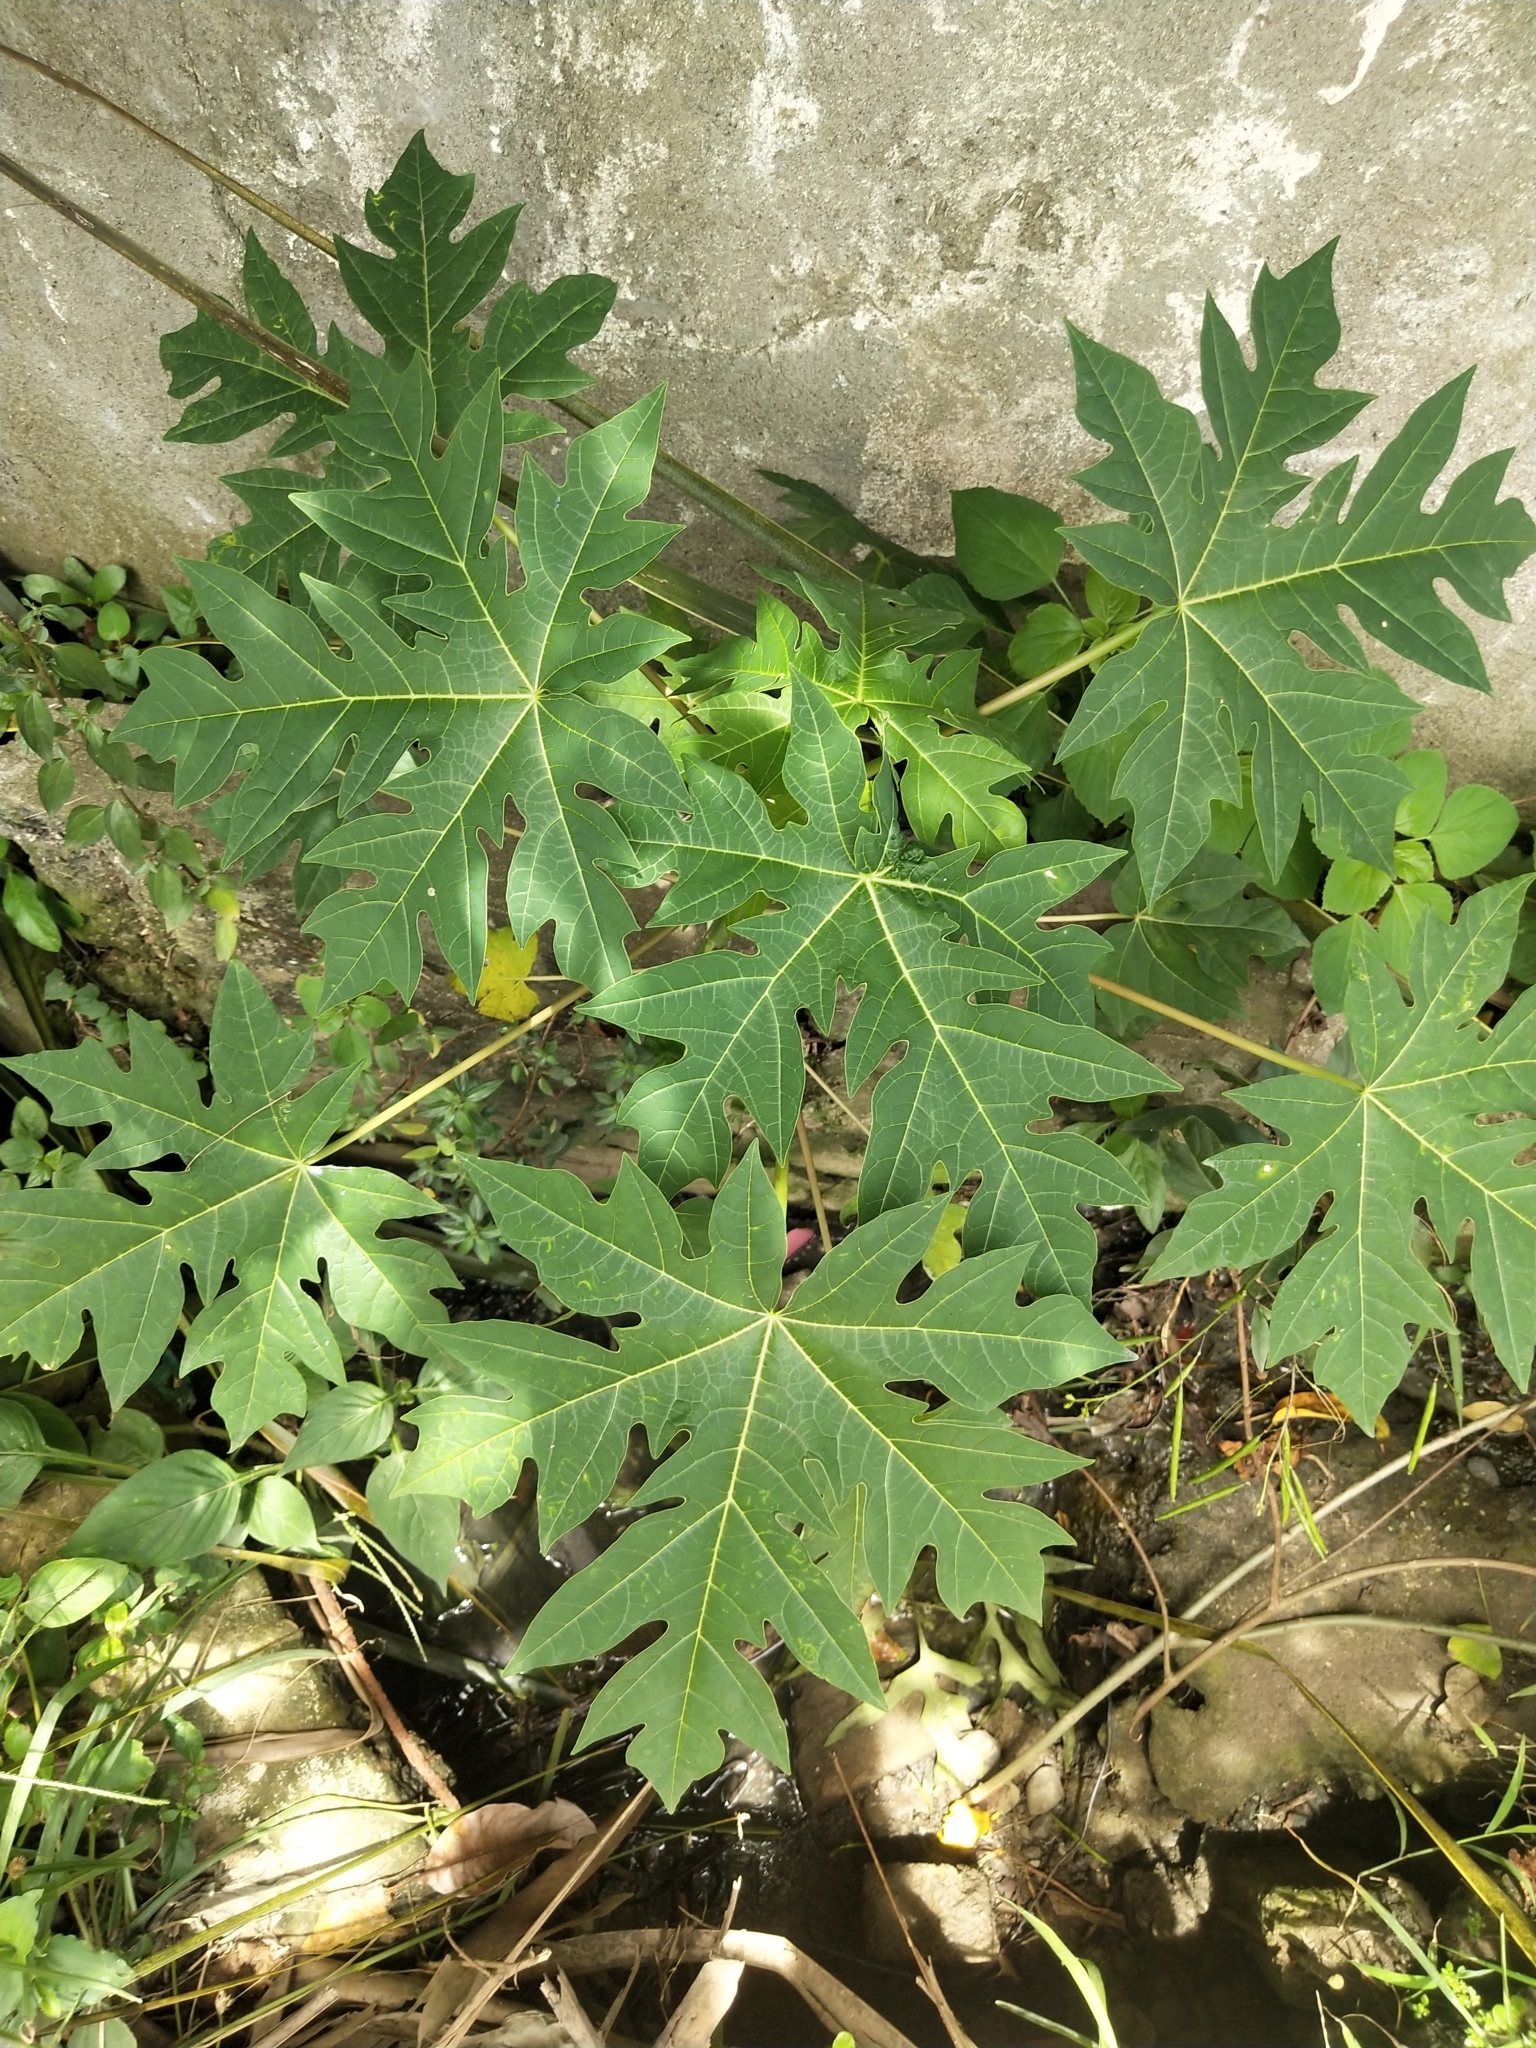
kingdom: Plantae
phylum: Tracheophyta
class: Magnoliopsida
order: Brassicales
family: Caricaceae
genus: Carica
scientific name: Carica papaya
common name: Papaya
